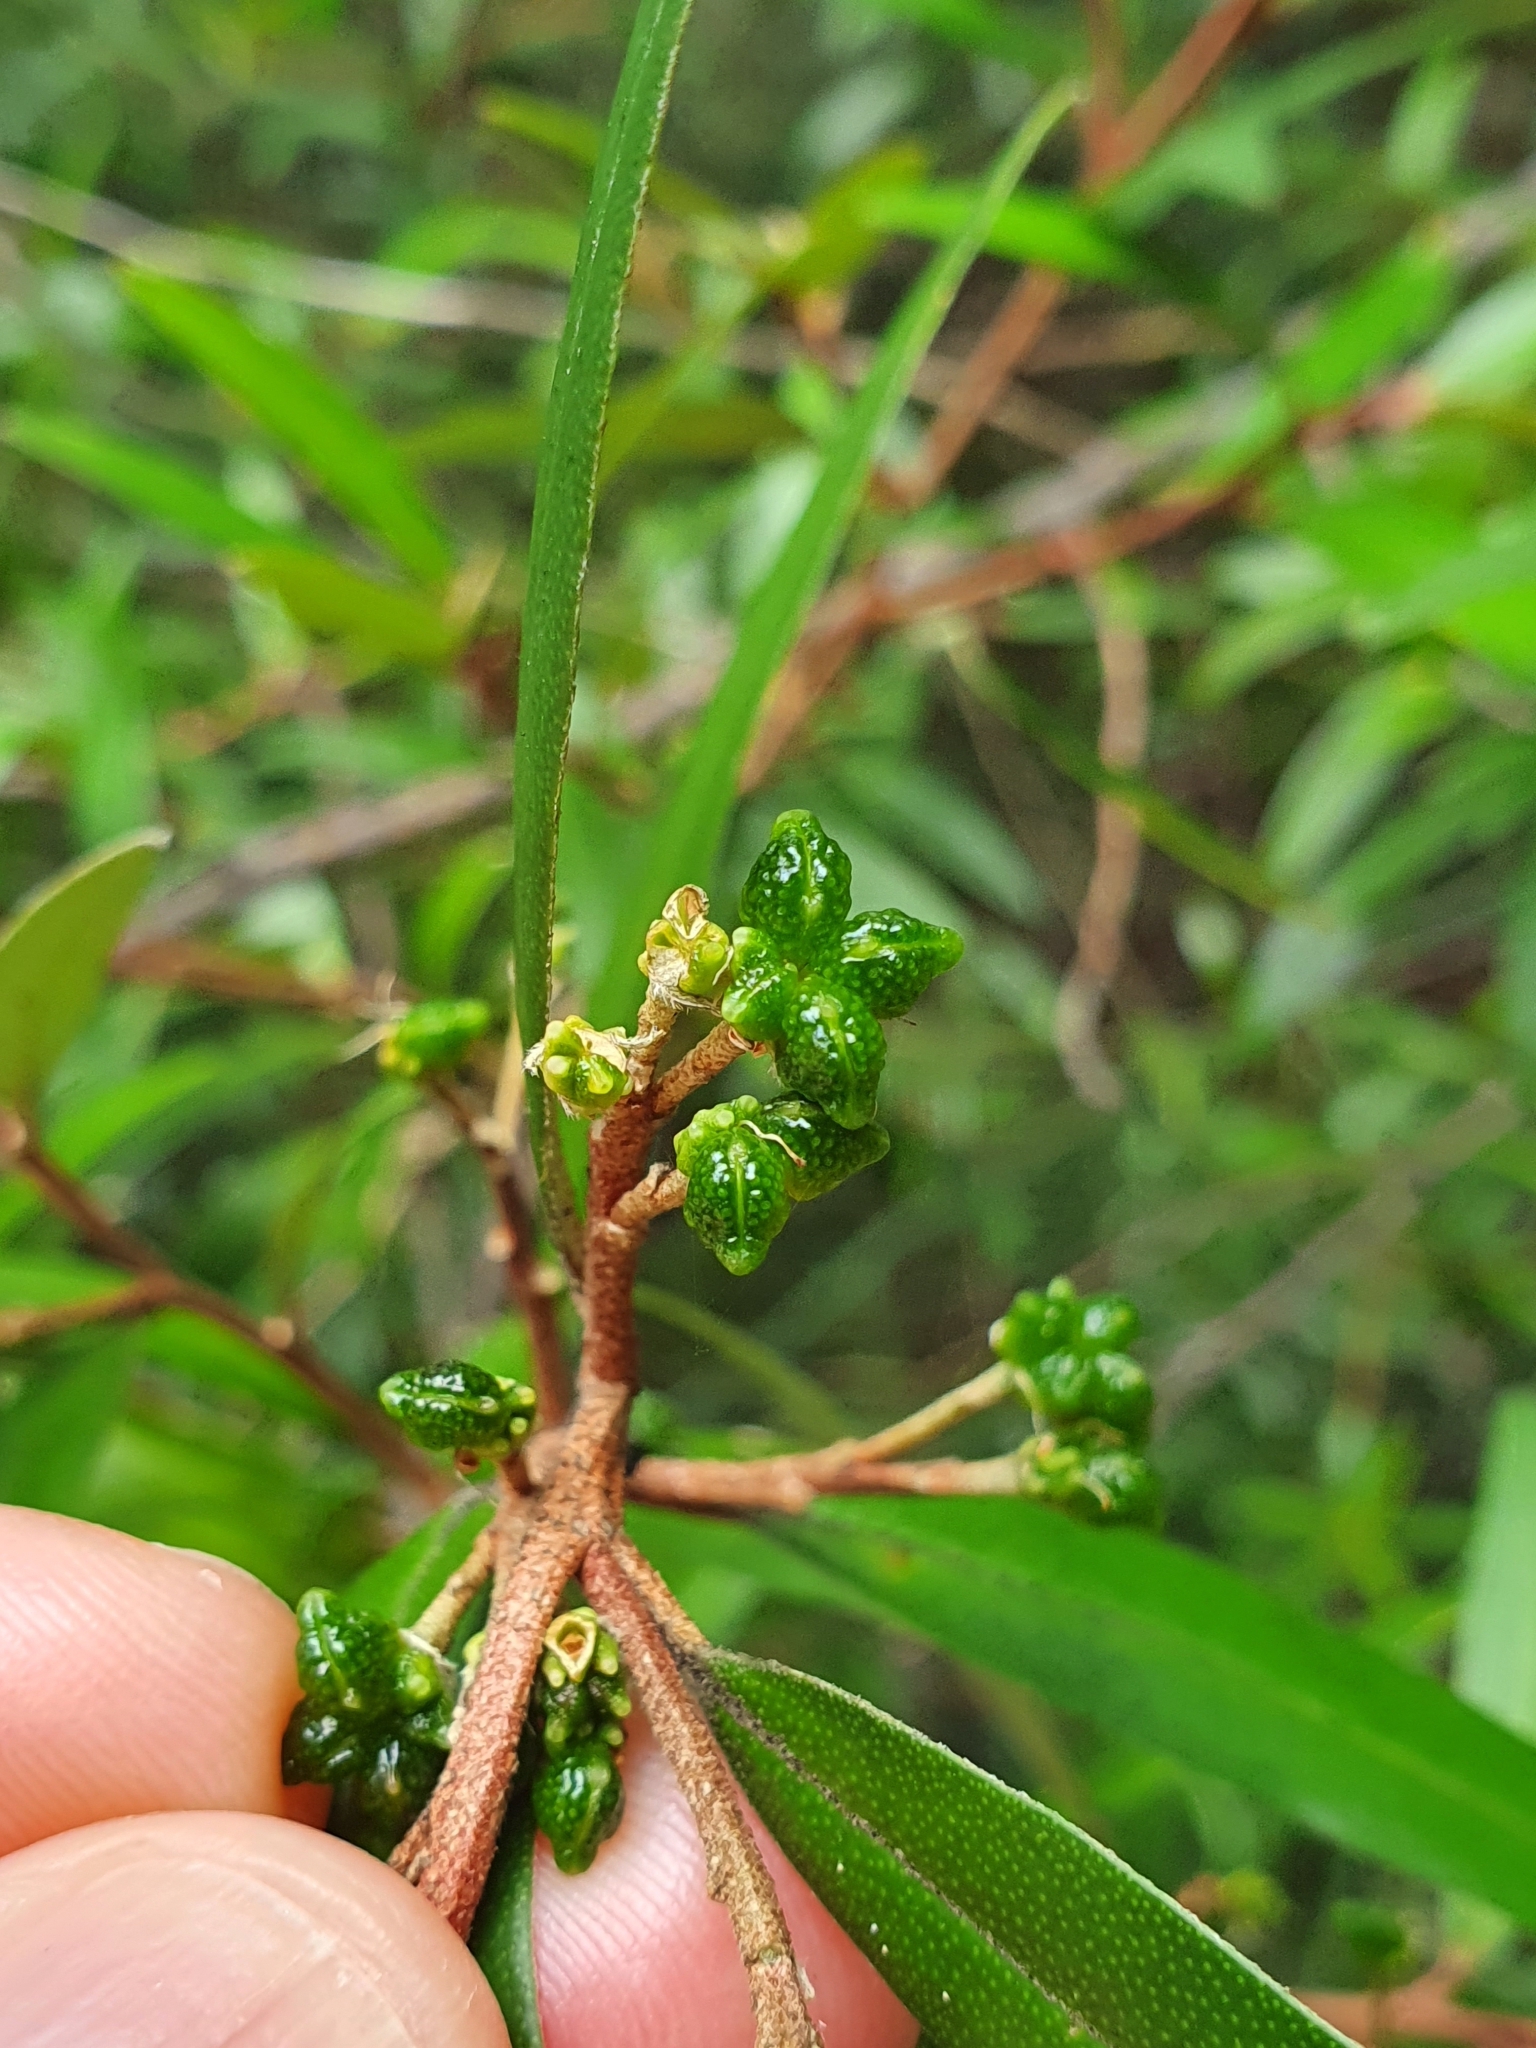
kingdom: Plantae
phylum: Tracheophyta
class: Magnoliopsida
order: Sapindales
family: Rutaceae
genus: Nematolepis
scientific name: Nematolepis squamea
